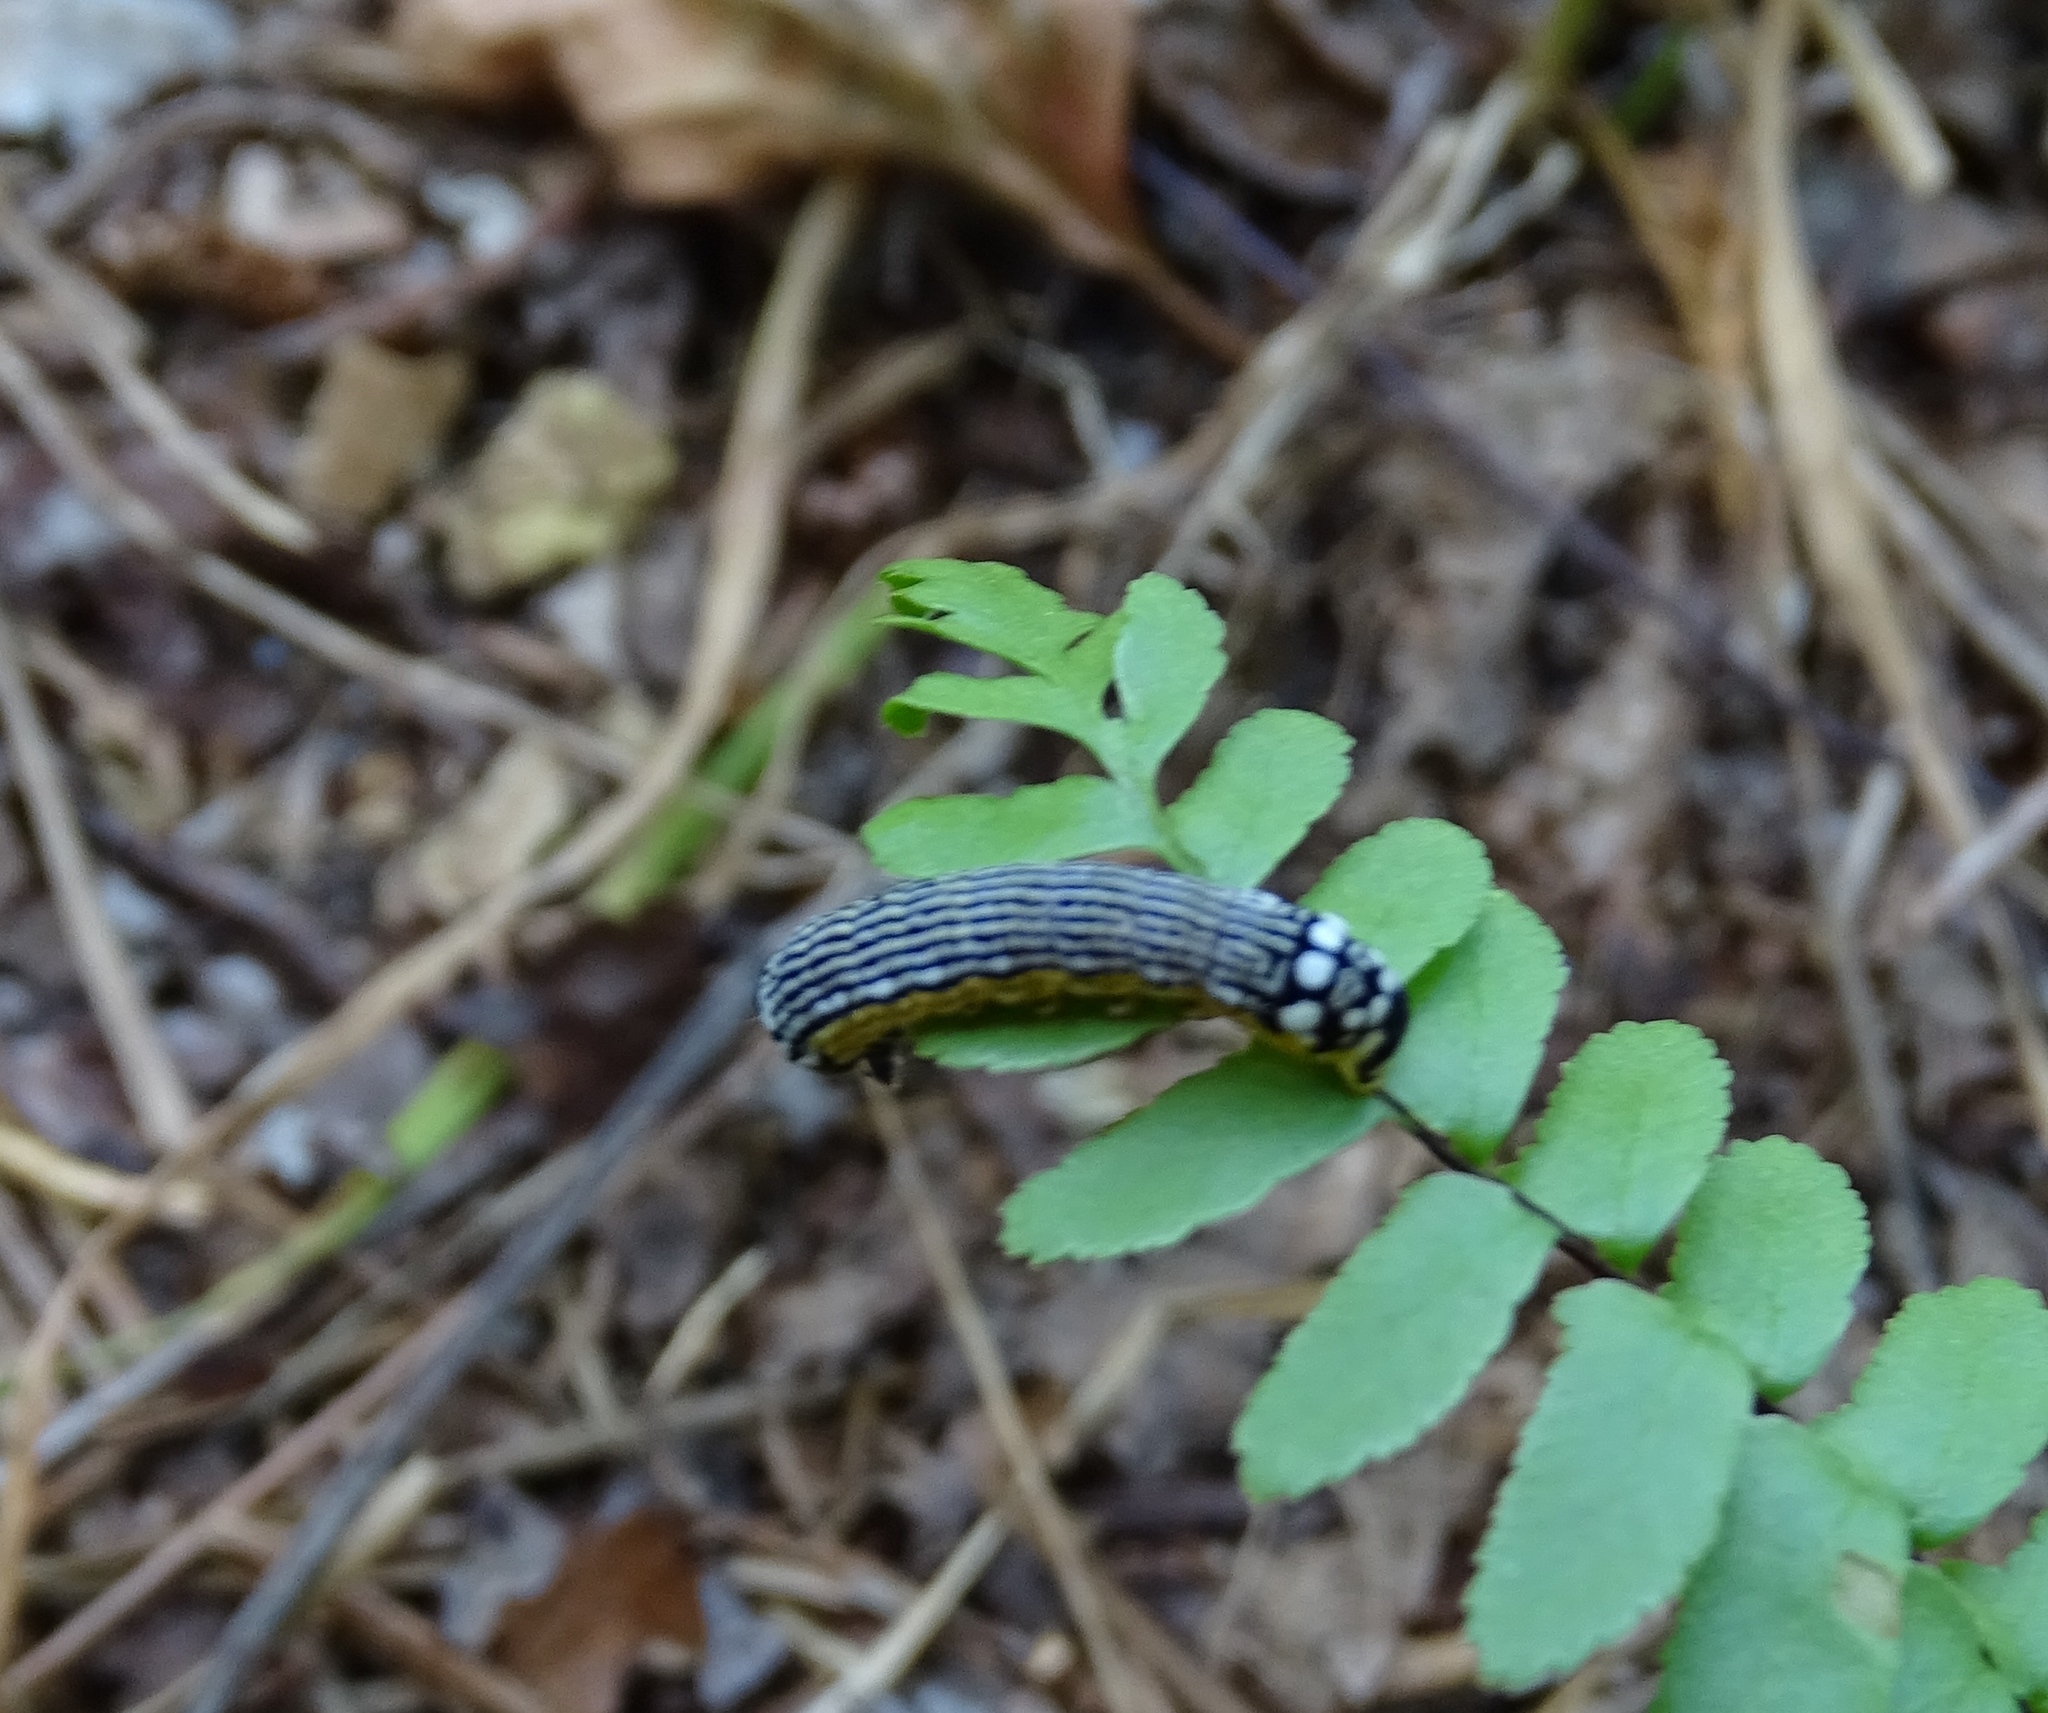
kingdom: Animalia
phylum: Arthropoda
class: Insecta
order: Lepidoptera
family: Noctuidae
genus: Phosphila
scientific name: Phosphila turbulenta
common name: Turbulent phosphila moth
